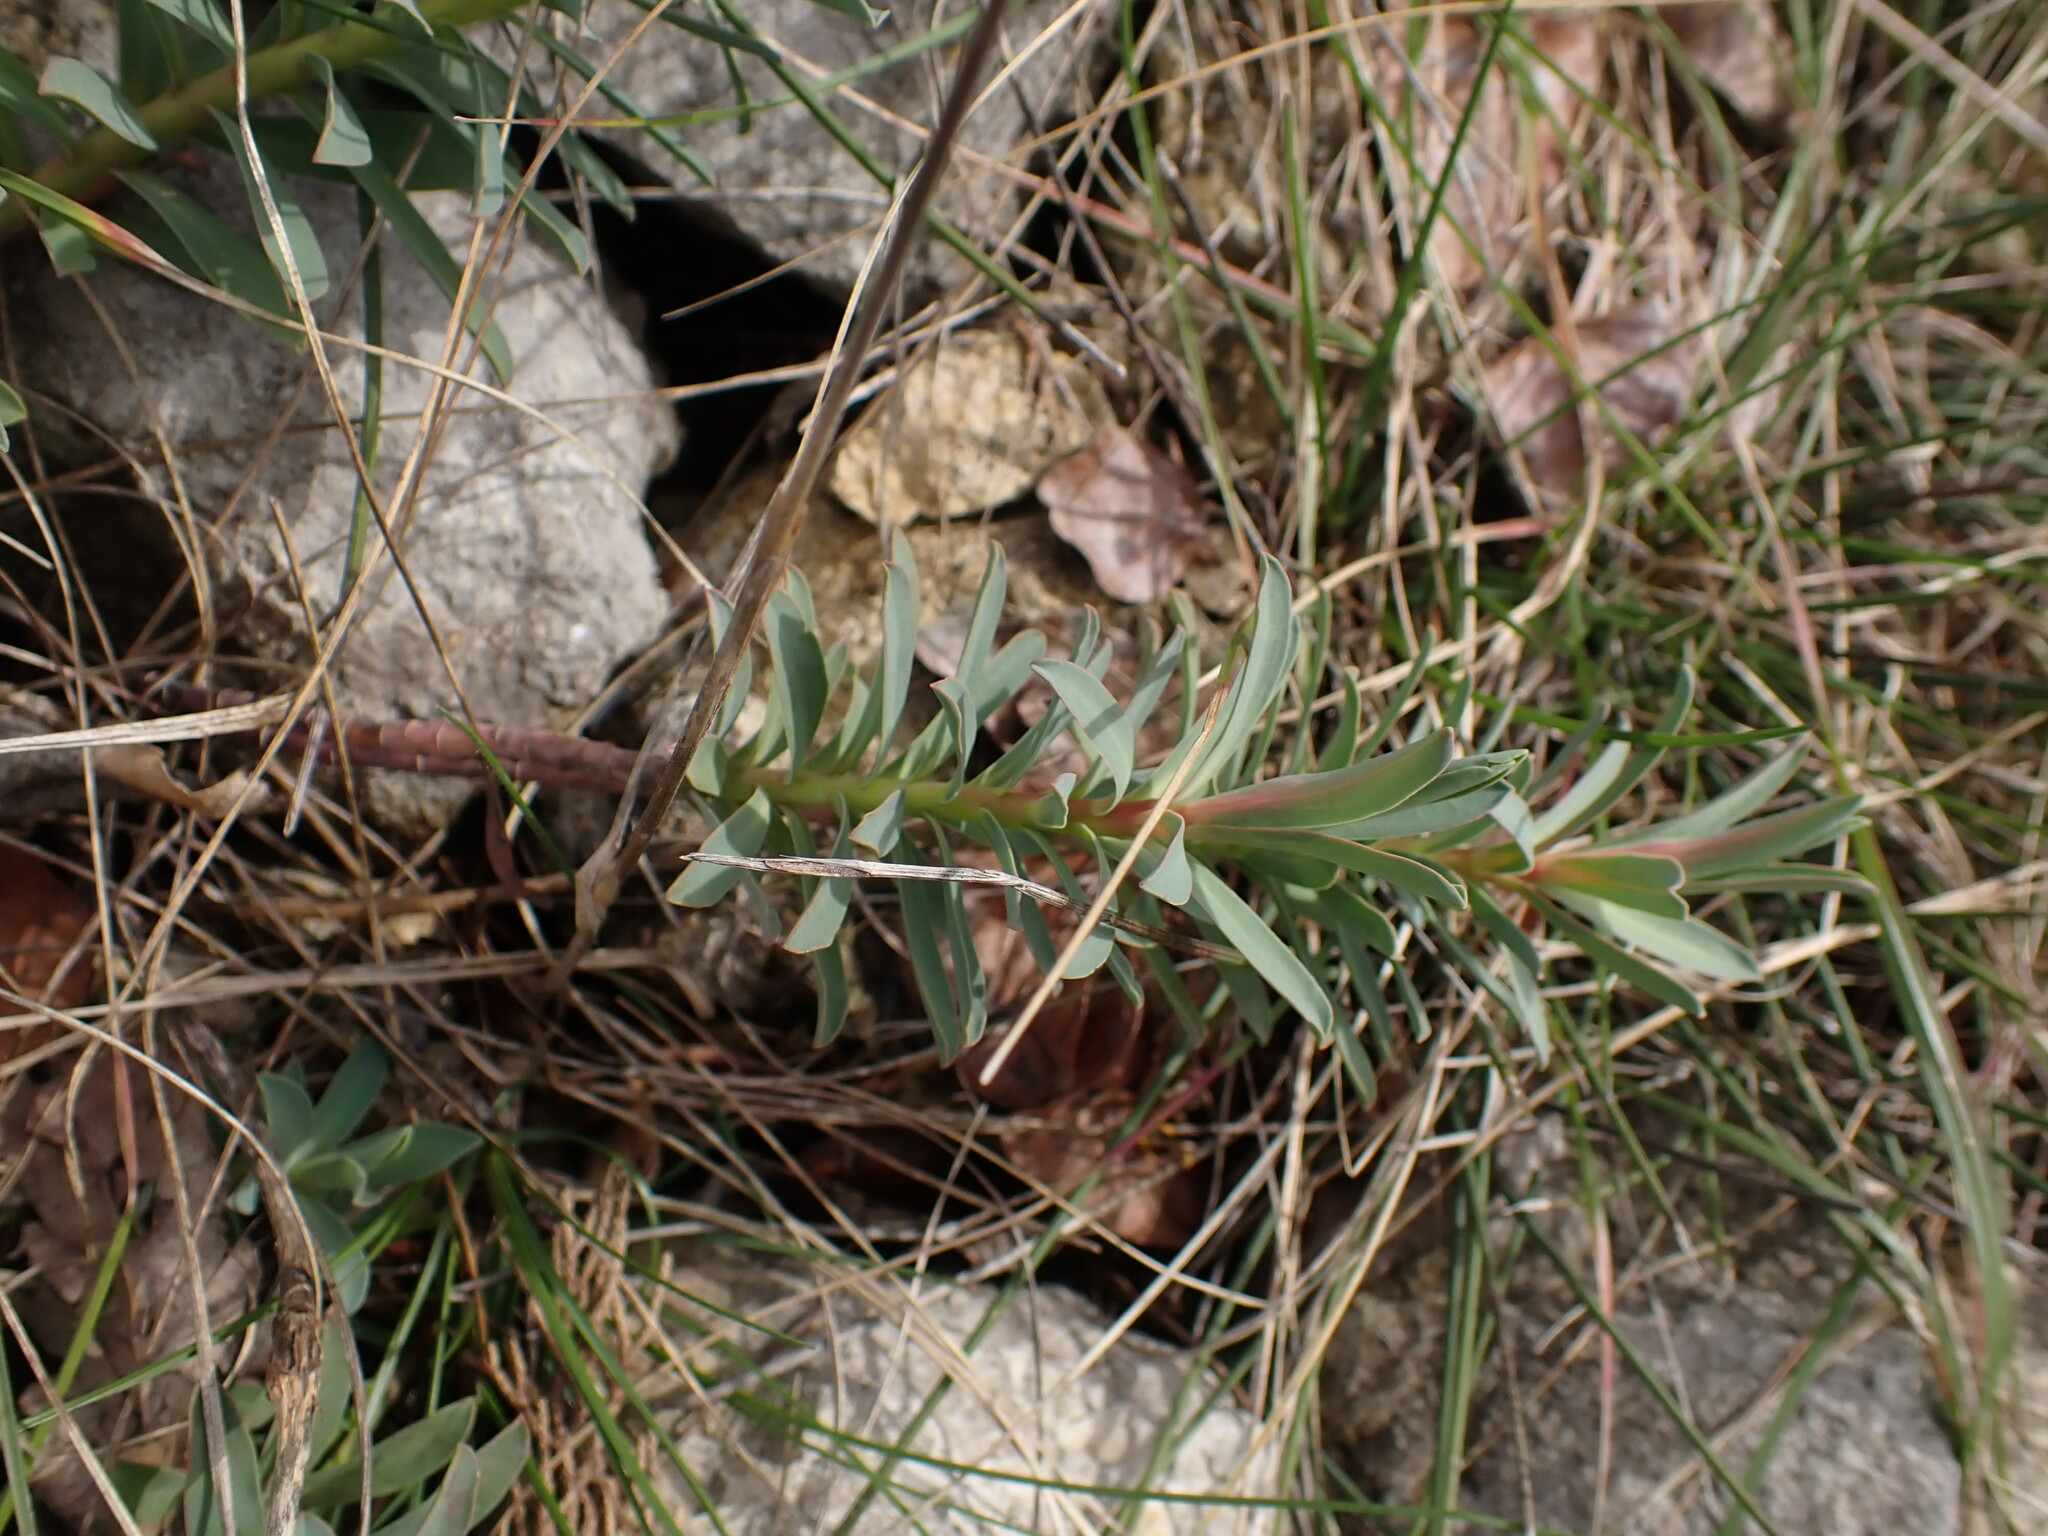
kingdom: Plantae
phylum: Tracheophyta
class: Magnoliopsida
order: Malpighiales
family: Euphorbiaceae
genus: Euphorbia
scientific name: Euphorbia nicaeensis
